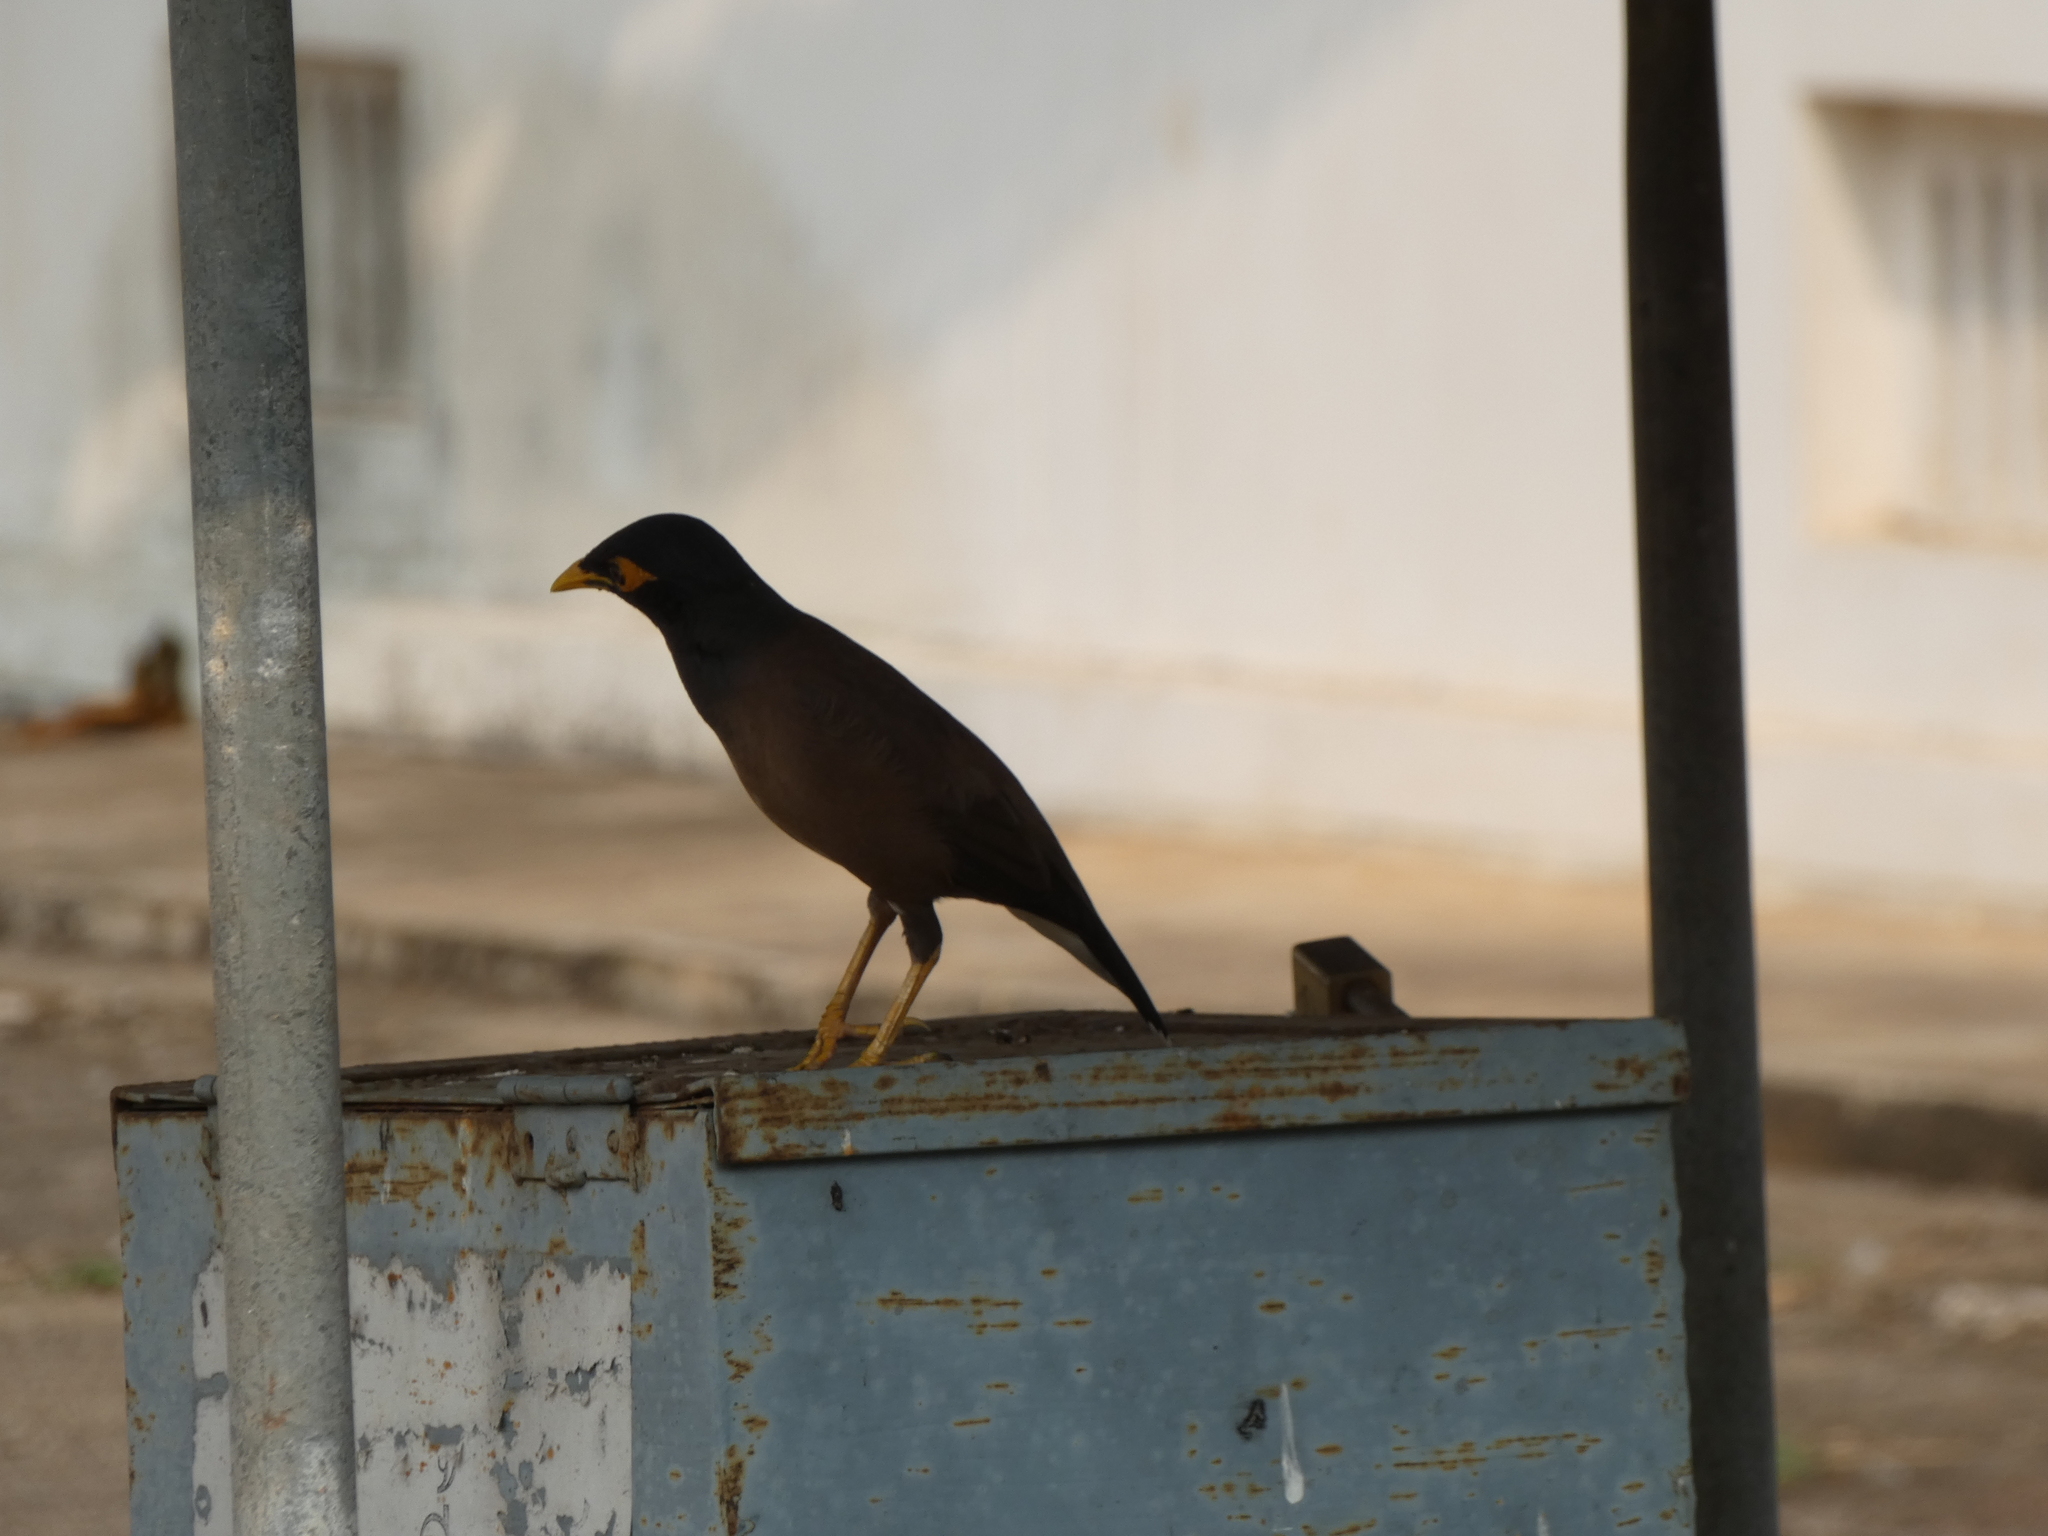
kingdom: Animalia
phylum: Chordata
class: Aves
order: Passeriformes
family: Sturnidae
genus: Acridotheres
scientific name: Acridotheres tristis
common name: Common myna
